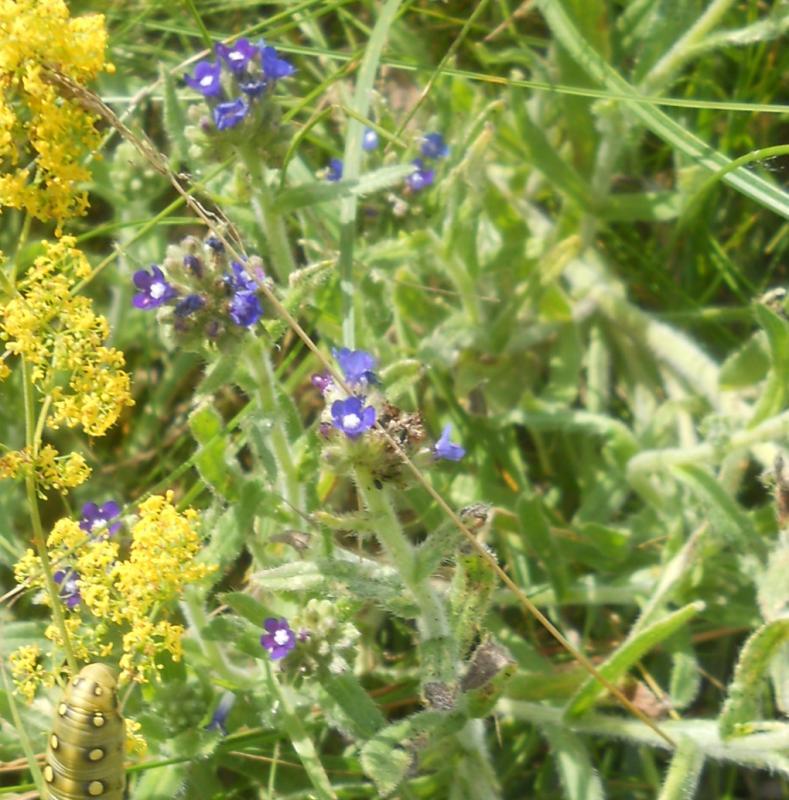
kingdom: Plantae
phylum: Tracheophyta
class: Magnoliopsida
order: Boraginales
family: Boraginaceae
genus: Anchusa
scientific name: Anchusa officinalis
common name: Alkanet
